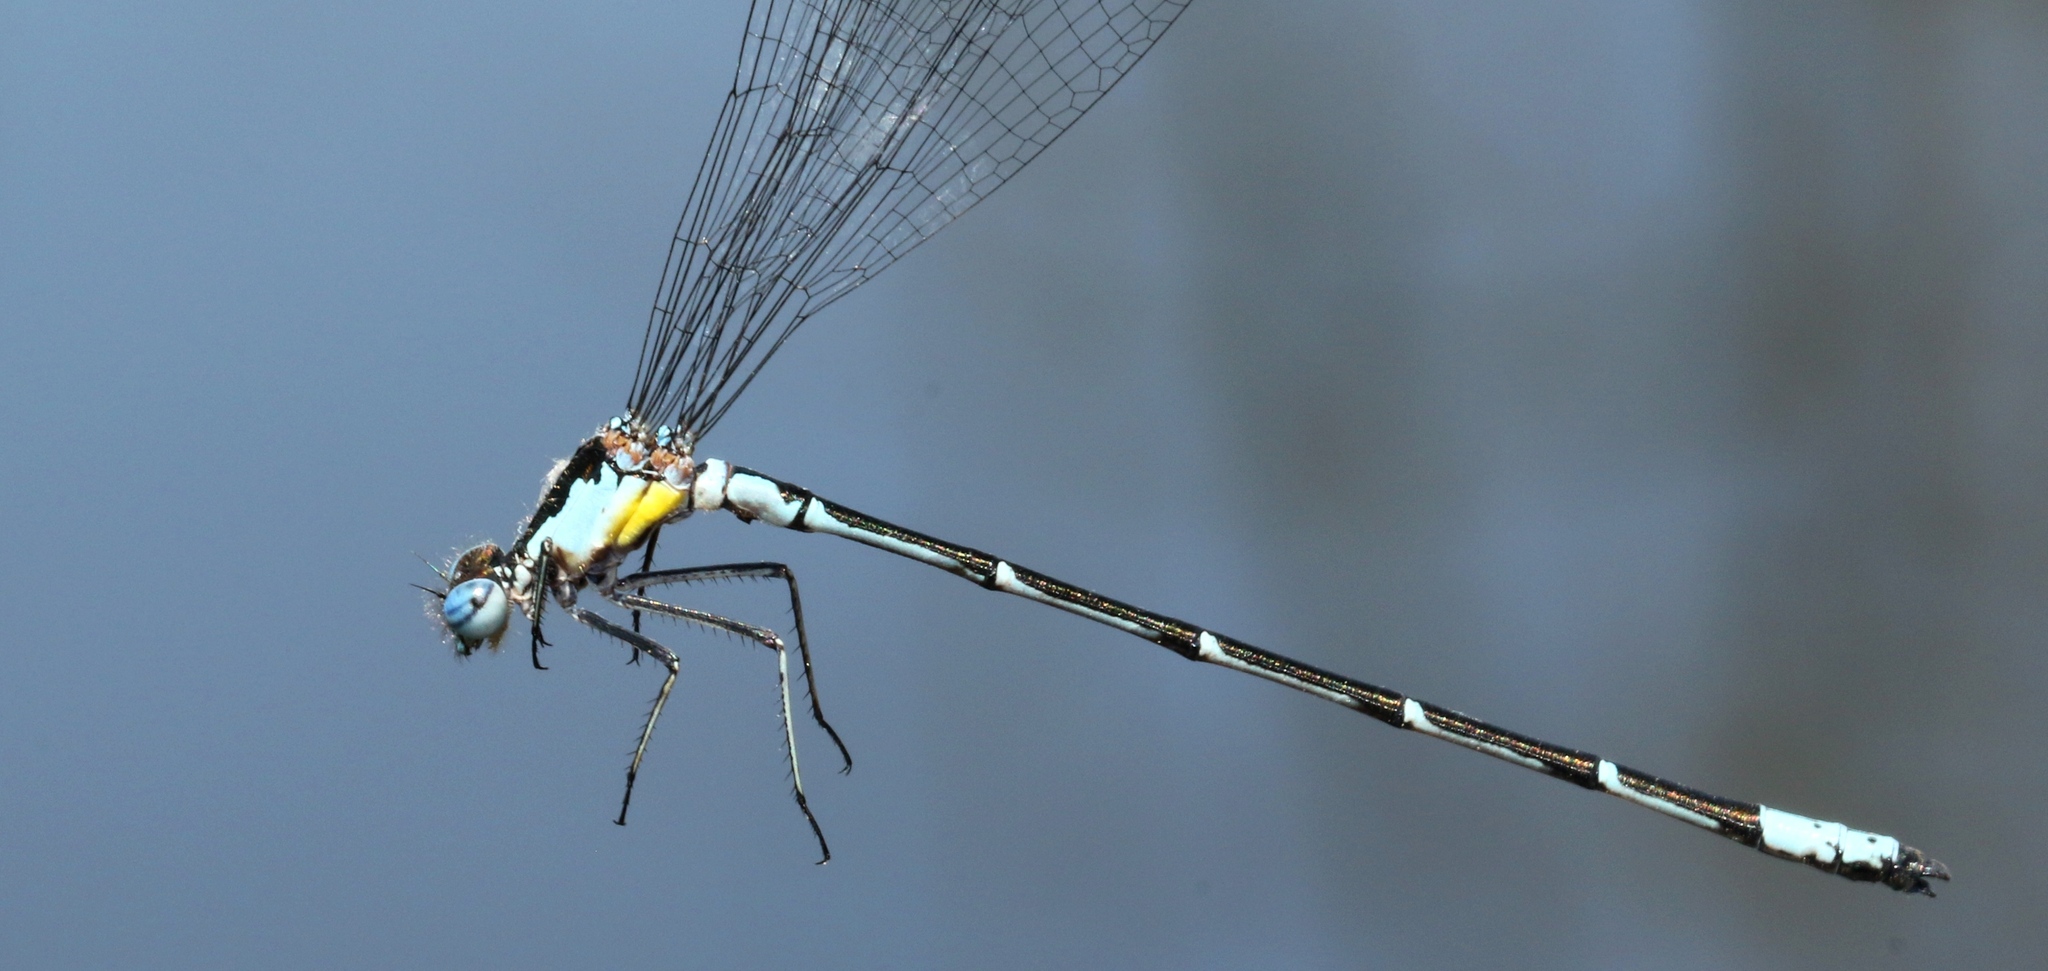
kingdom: Animalia
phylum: Arthropoda
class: Insecta
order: Odonata
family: Coenagrionidae
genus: Chromagrion
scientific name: Chromagrion conditum
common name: Aurora damsel
